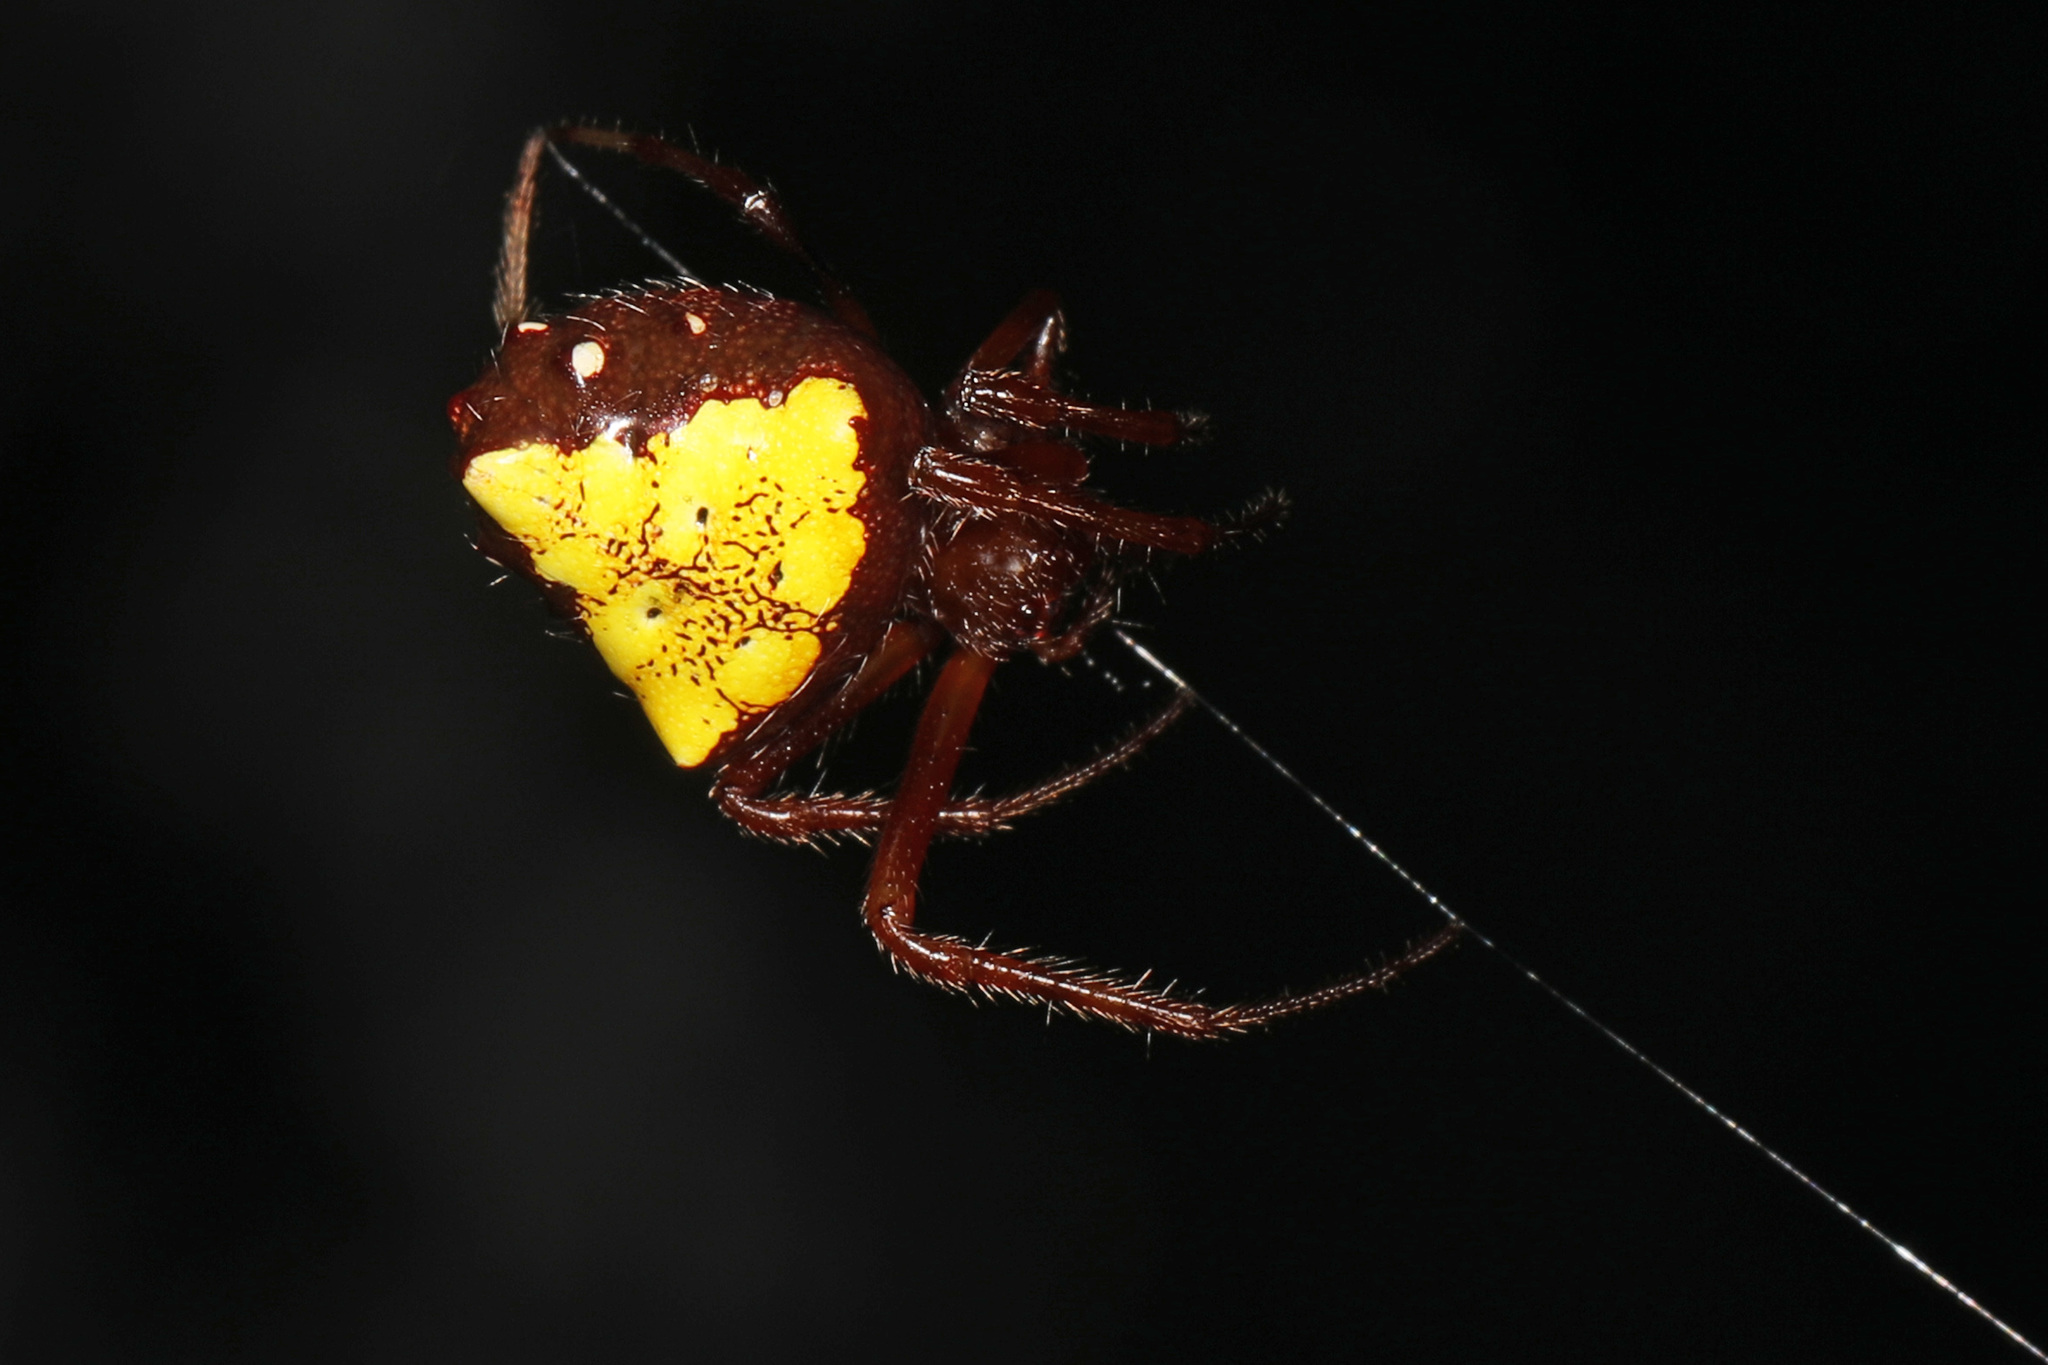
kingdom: Animalia
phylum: Arthropoda
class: Arachnida
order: Araneae
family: Araneidae
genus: Verrucosa
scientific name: Verrucosa arenata
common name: Orb weavers
